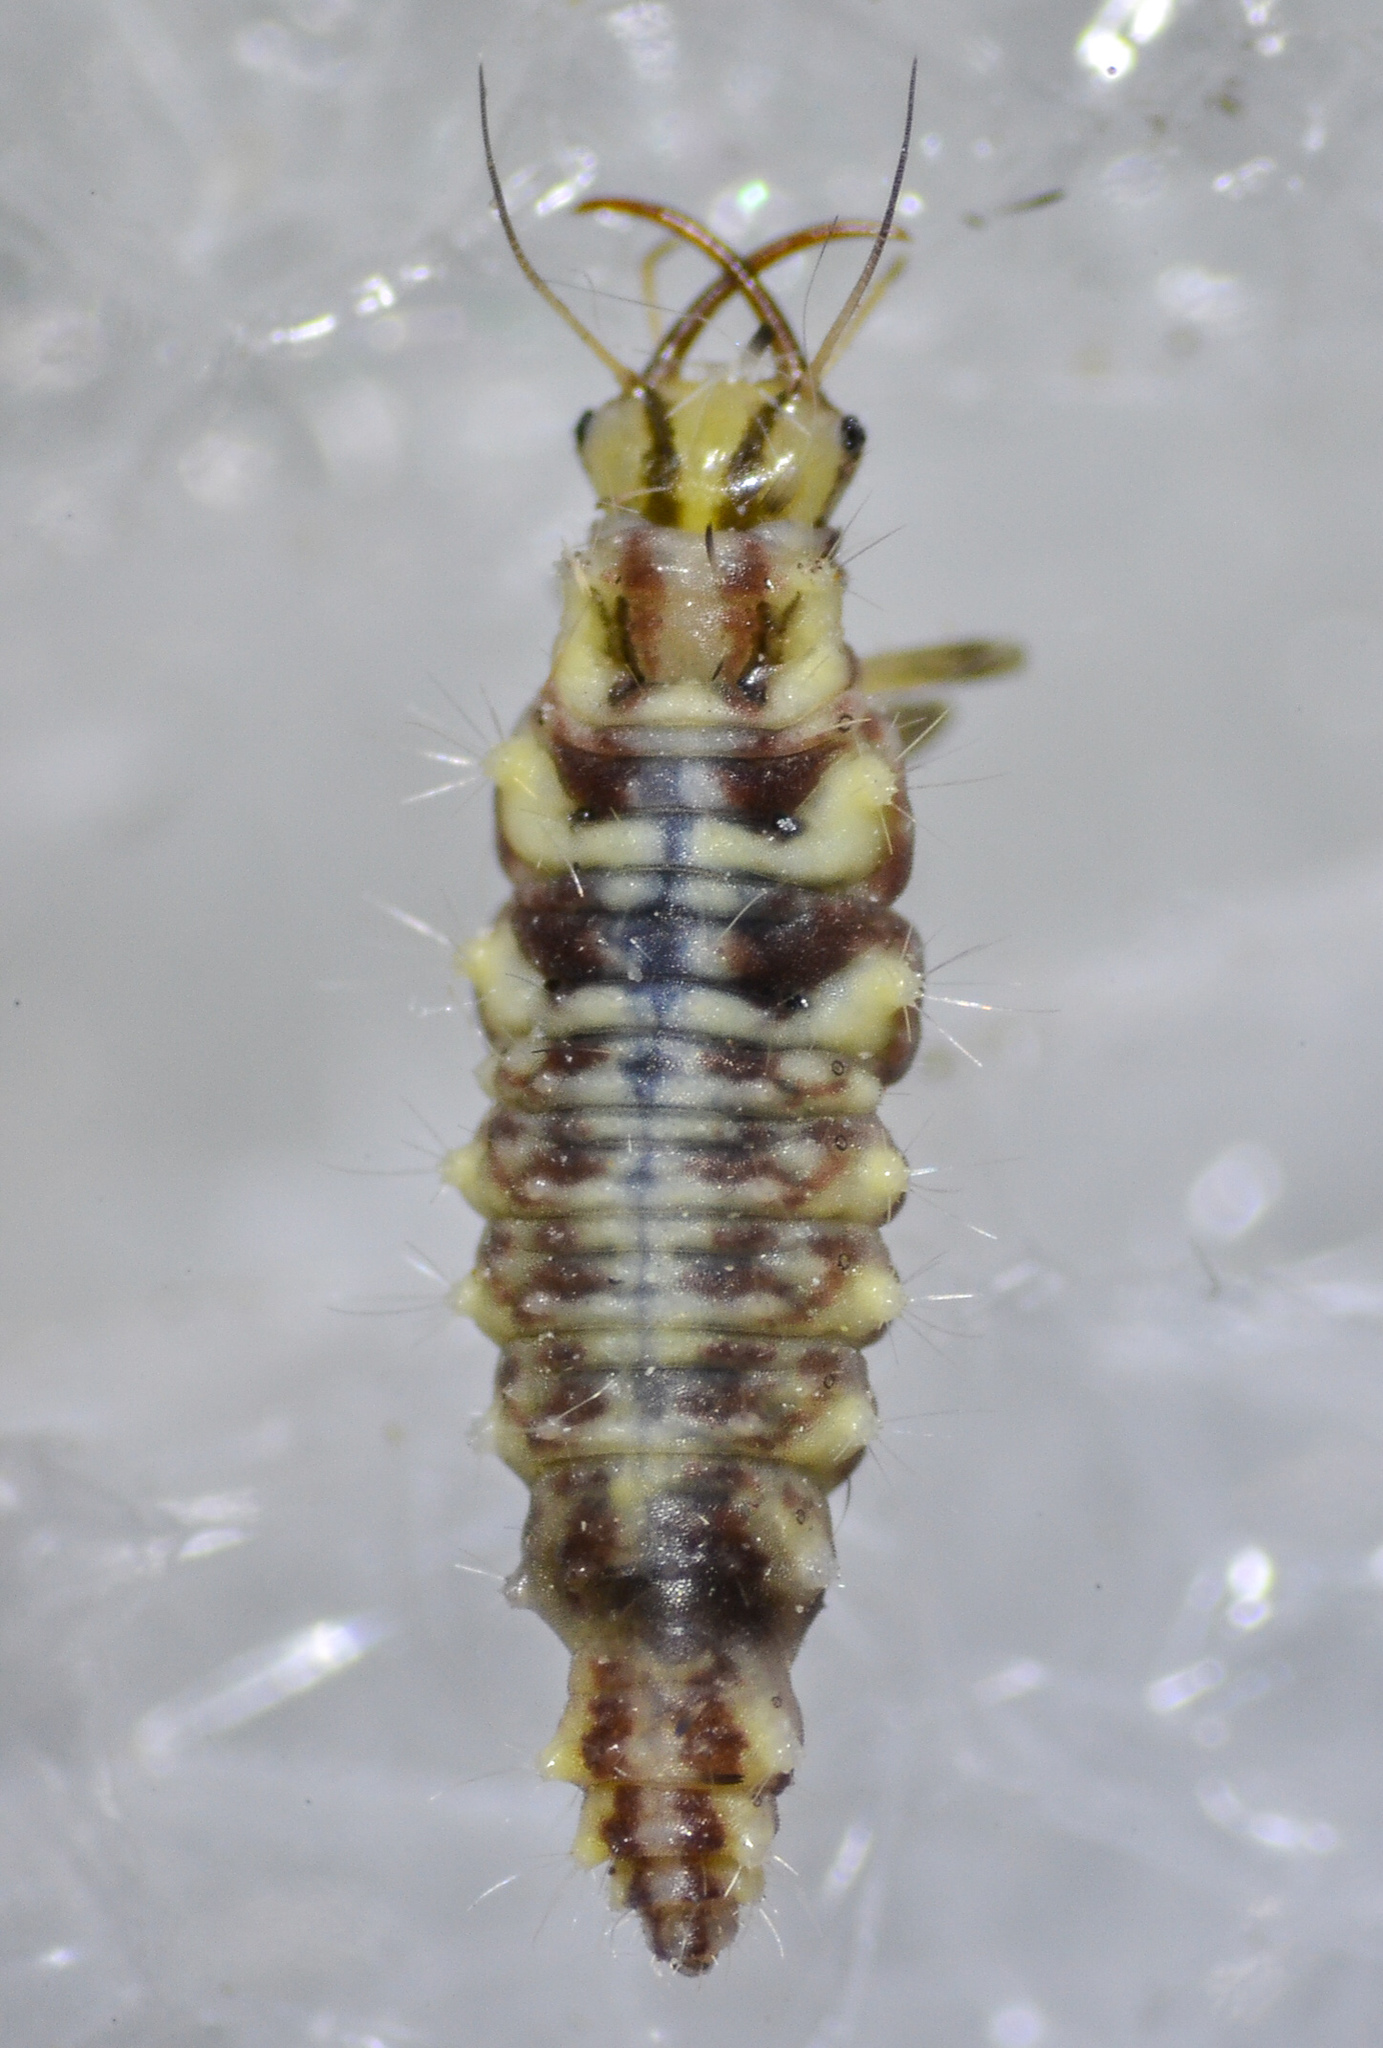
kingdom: Animalia
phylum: Arthropoda
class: Insecta
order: Neuroptera
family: Chrysopidae
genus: Chrysoperla
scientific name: Chrysoperla
